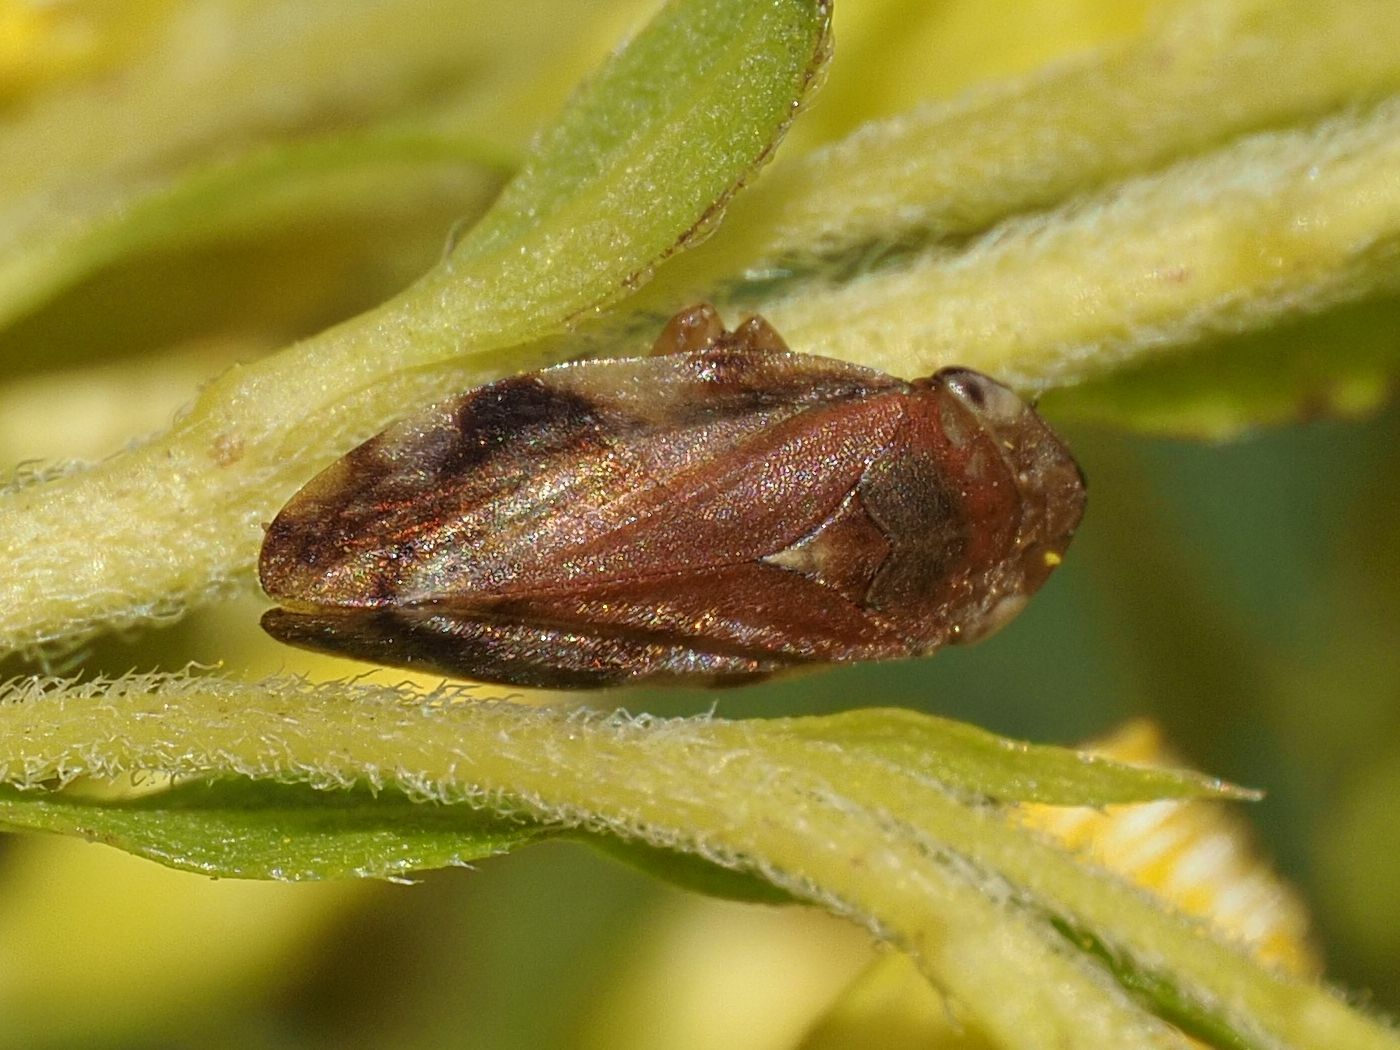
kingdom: Animalia
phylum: Arthropoda
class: Insecta
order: Hemiptera
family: Aphrophoridae
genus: Philaenus
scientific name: Philaenus spumarius
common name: Meadow spittlebug
